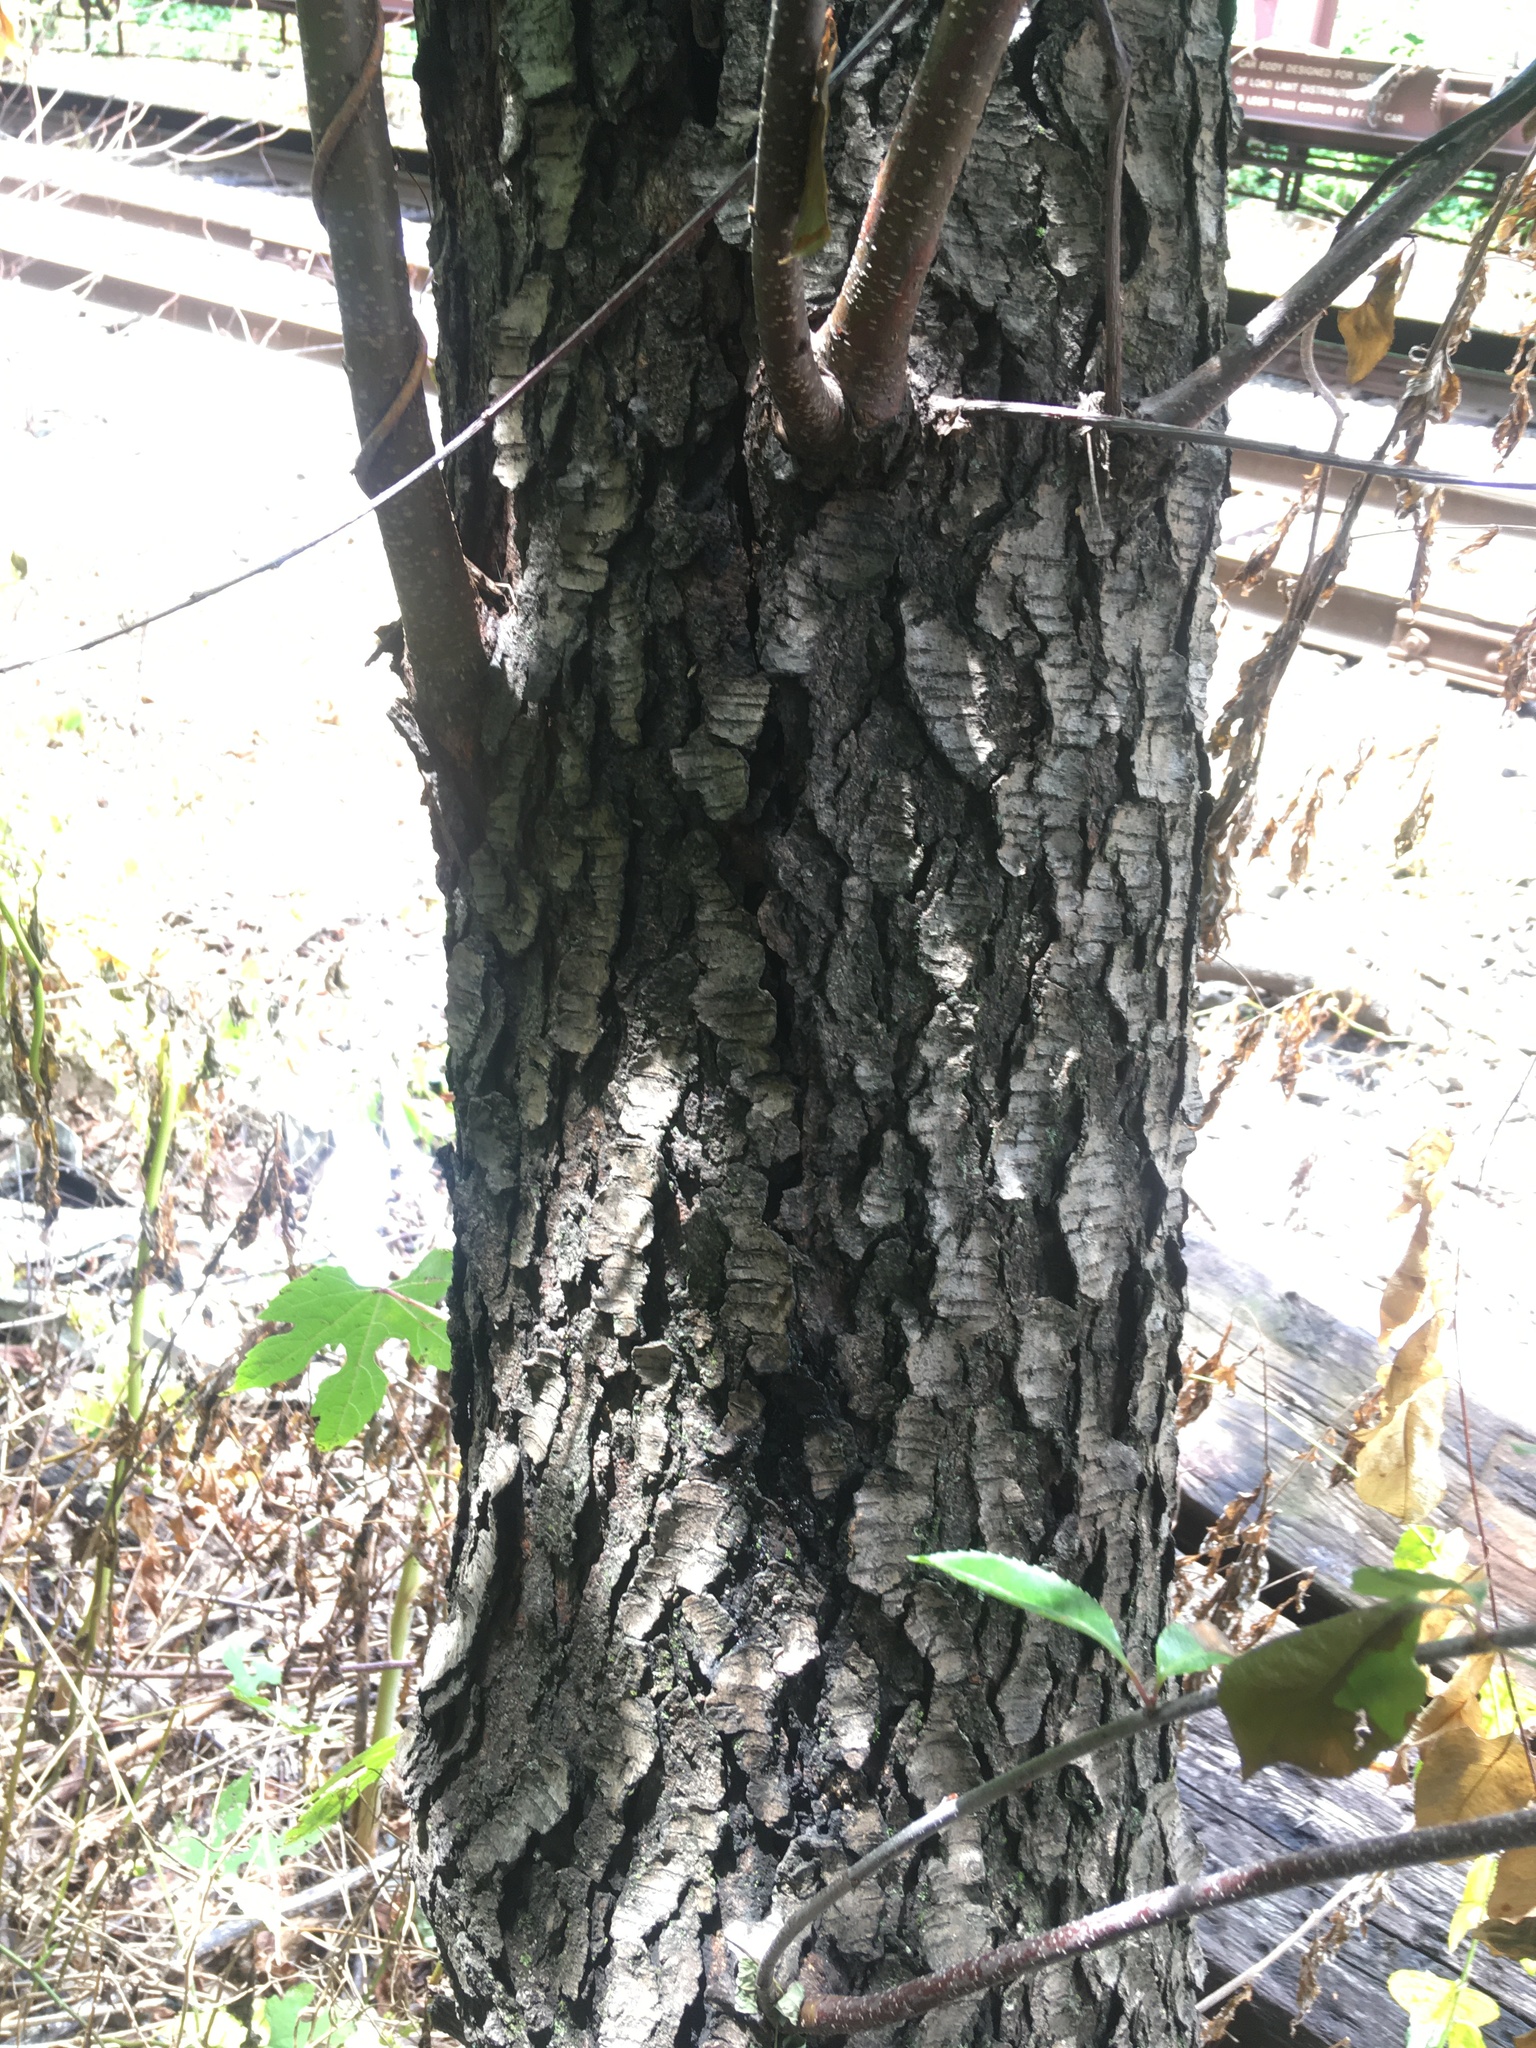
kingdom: Plantae
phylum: Tracheophyta
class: Magnoliopsida
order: Rosales
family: Rosaceae
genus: Prunus
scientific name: Prunus serotina
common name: Black cherry
